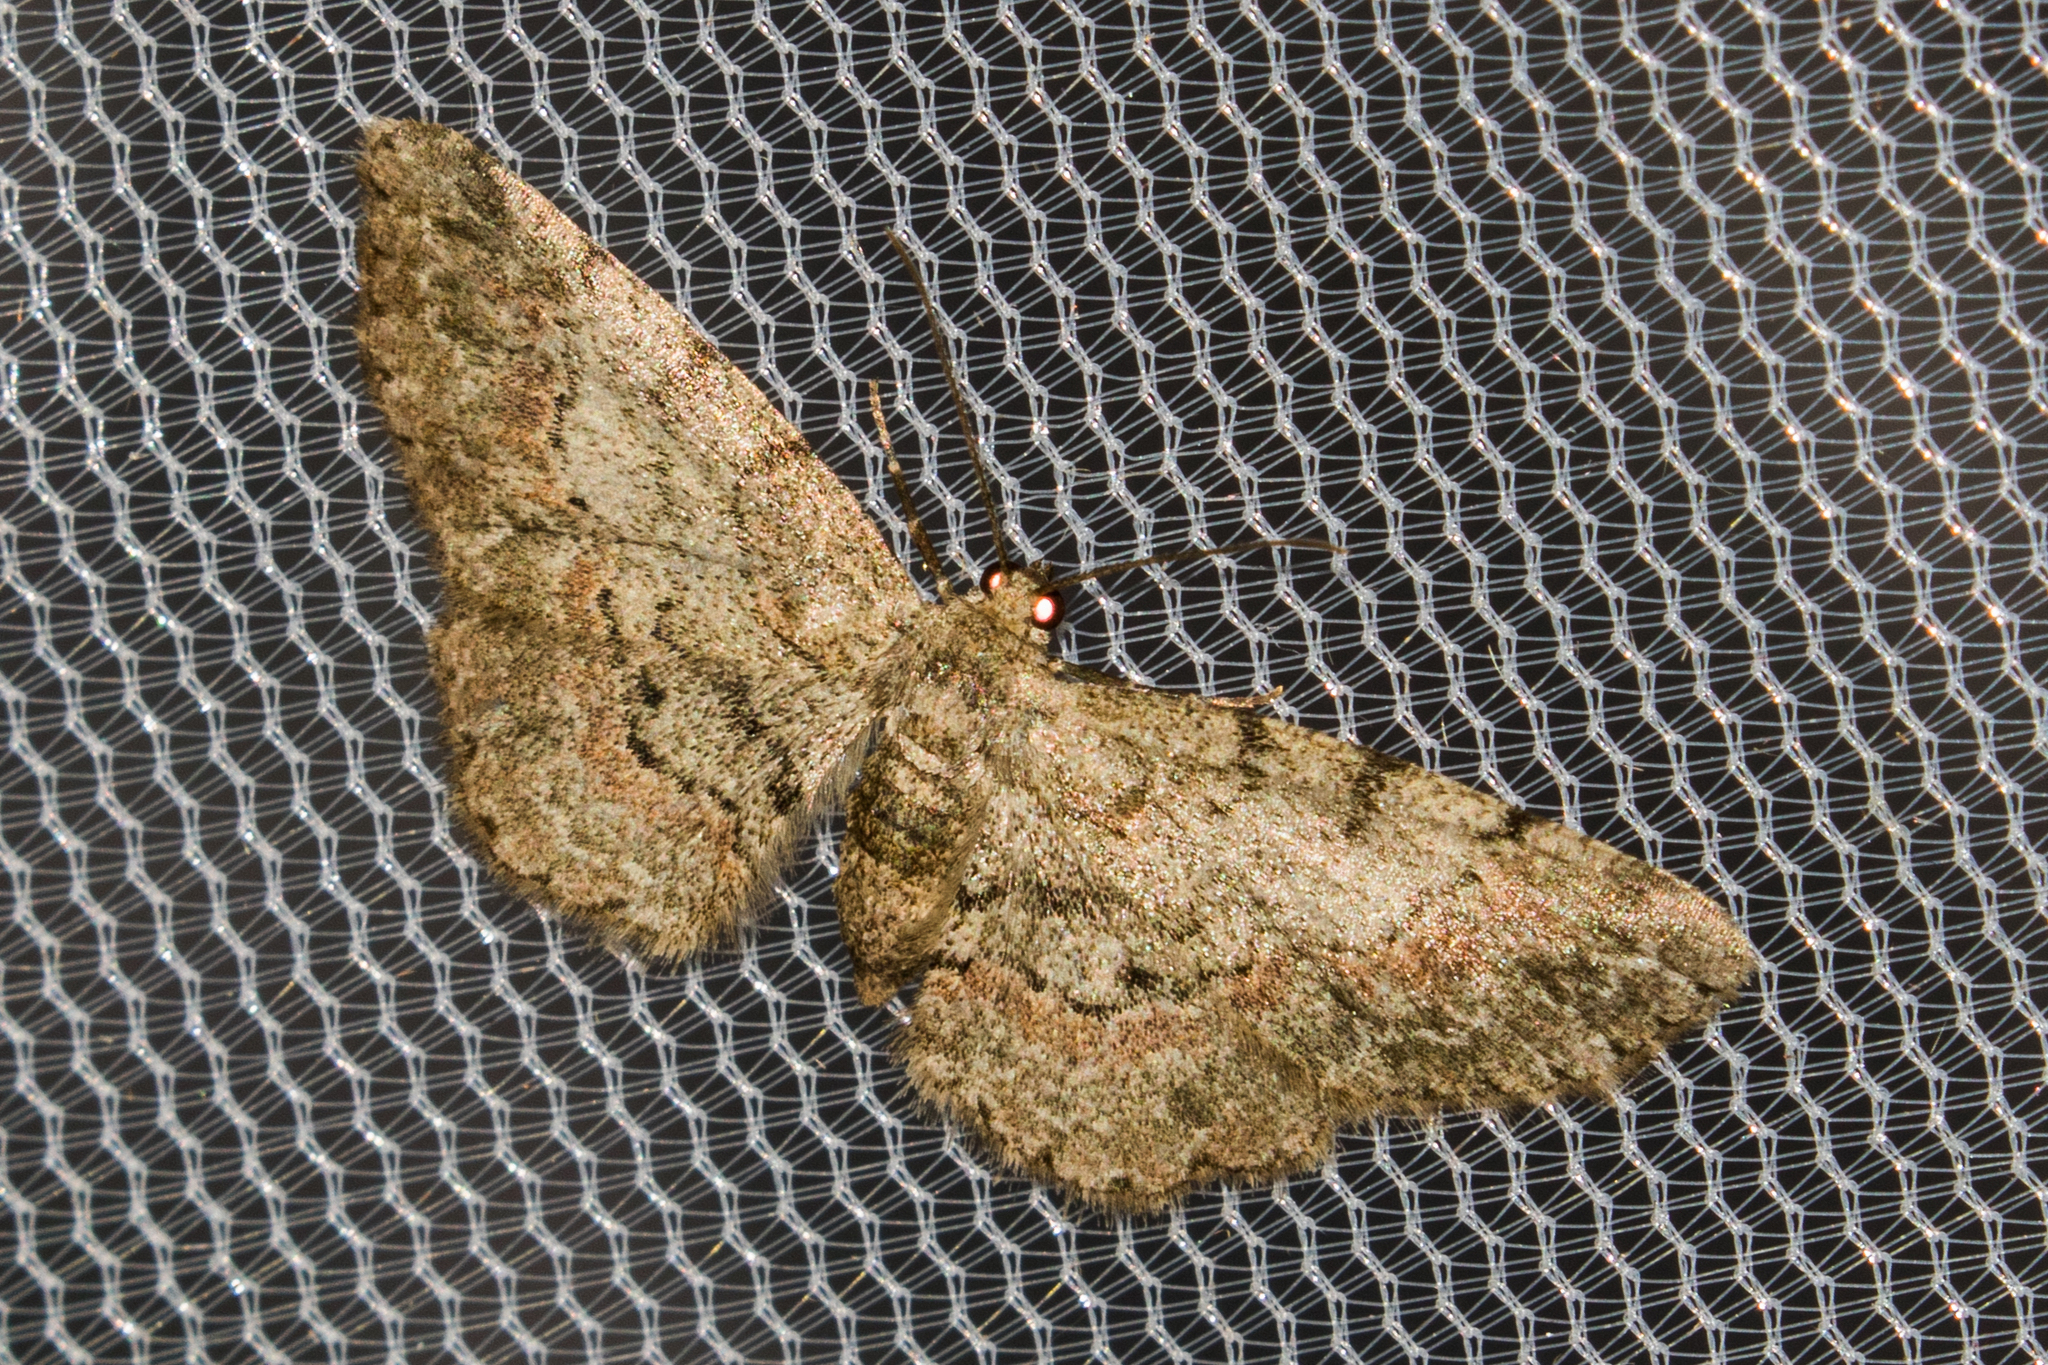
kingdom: Animalia
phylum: Arthropoda
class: Insecta
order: Lepidoptera
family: Geometridae
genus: Glenoides
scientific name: Glenoides texanaria
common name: Texas gray
